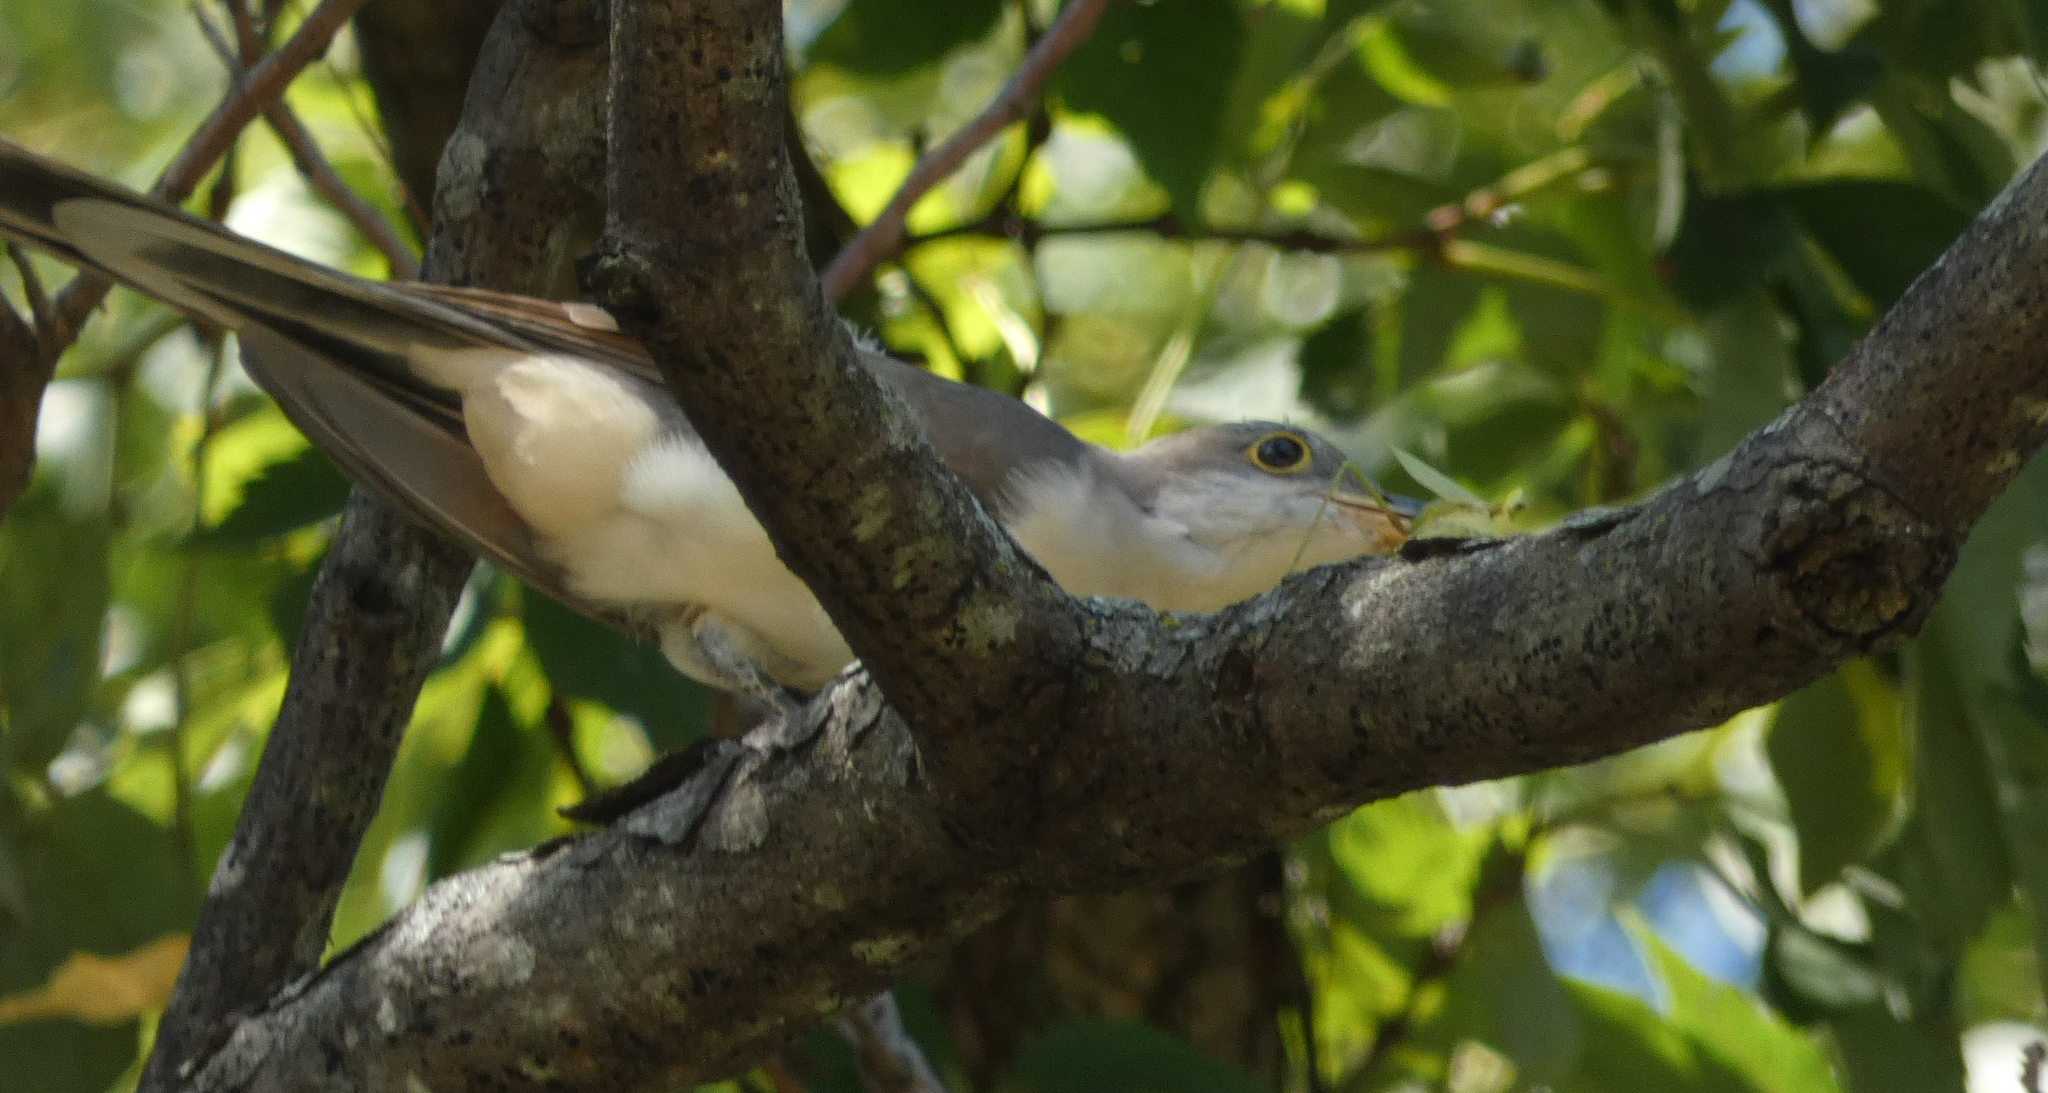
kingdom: Animalia
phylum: Chordata
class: Aves
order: Cuculiformes
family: Cuculidae
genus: Coccyzus
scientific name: Coccyzus americanus
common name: Yellow-billed cuckoo
